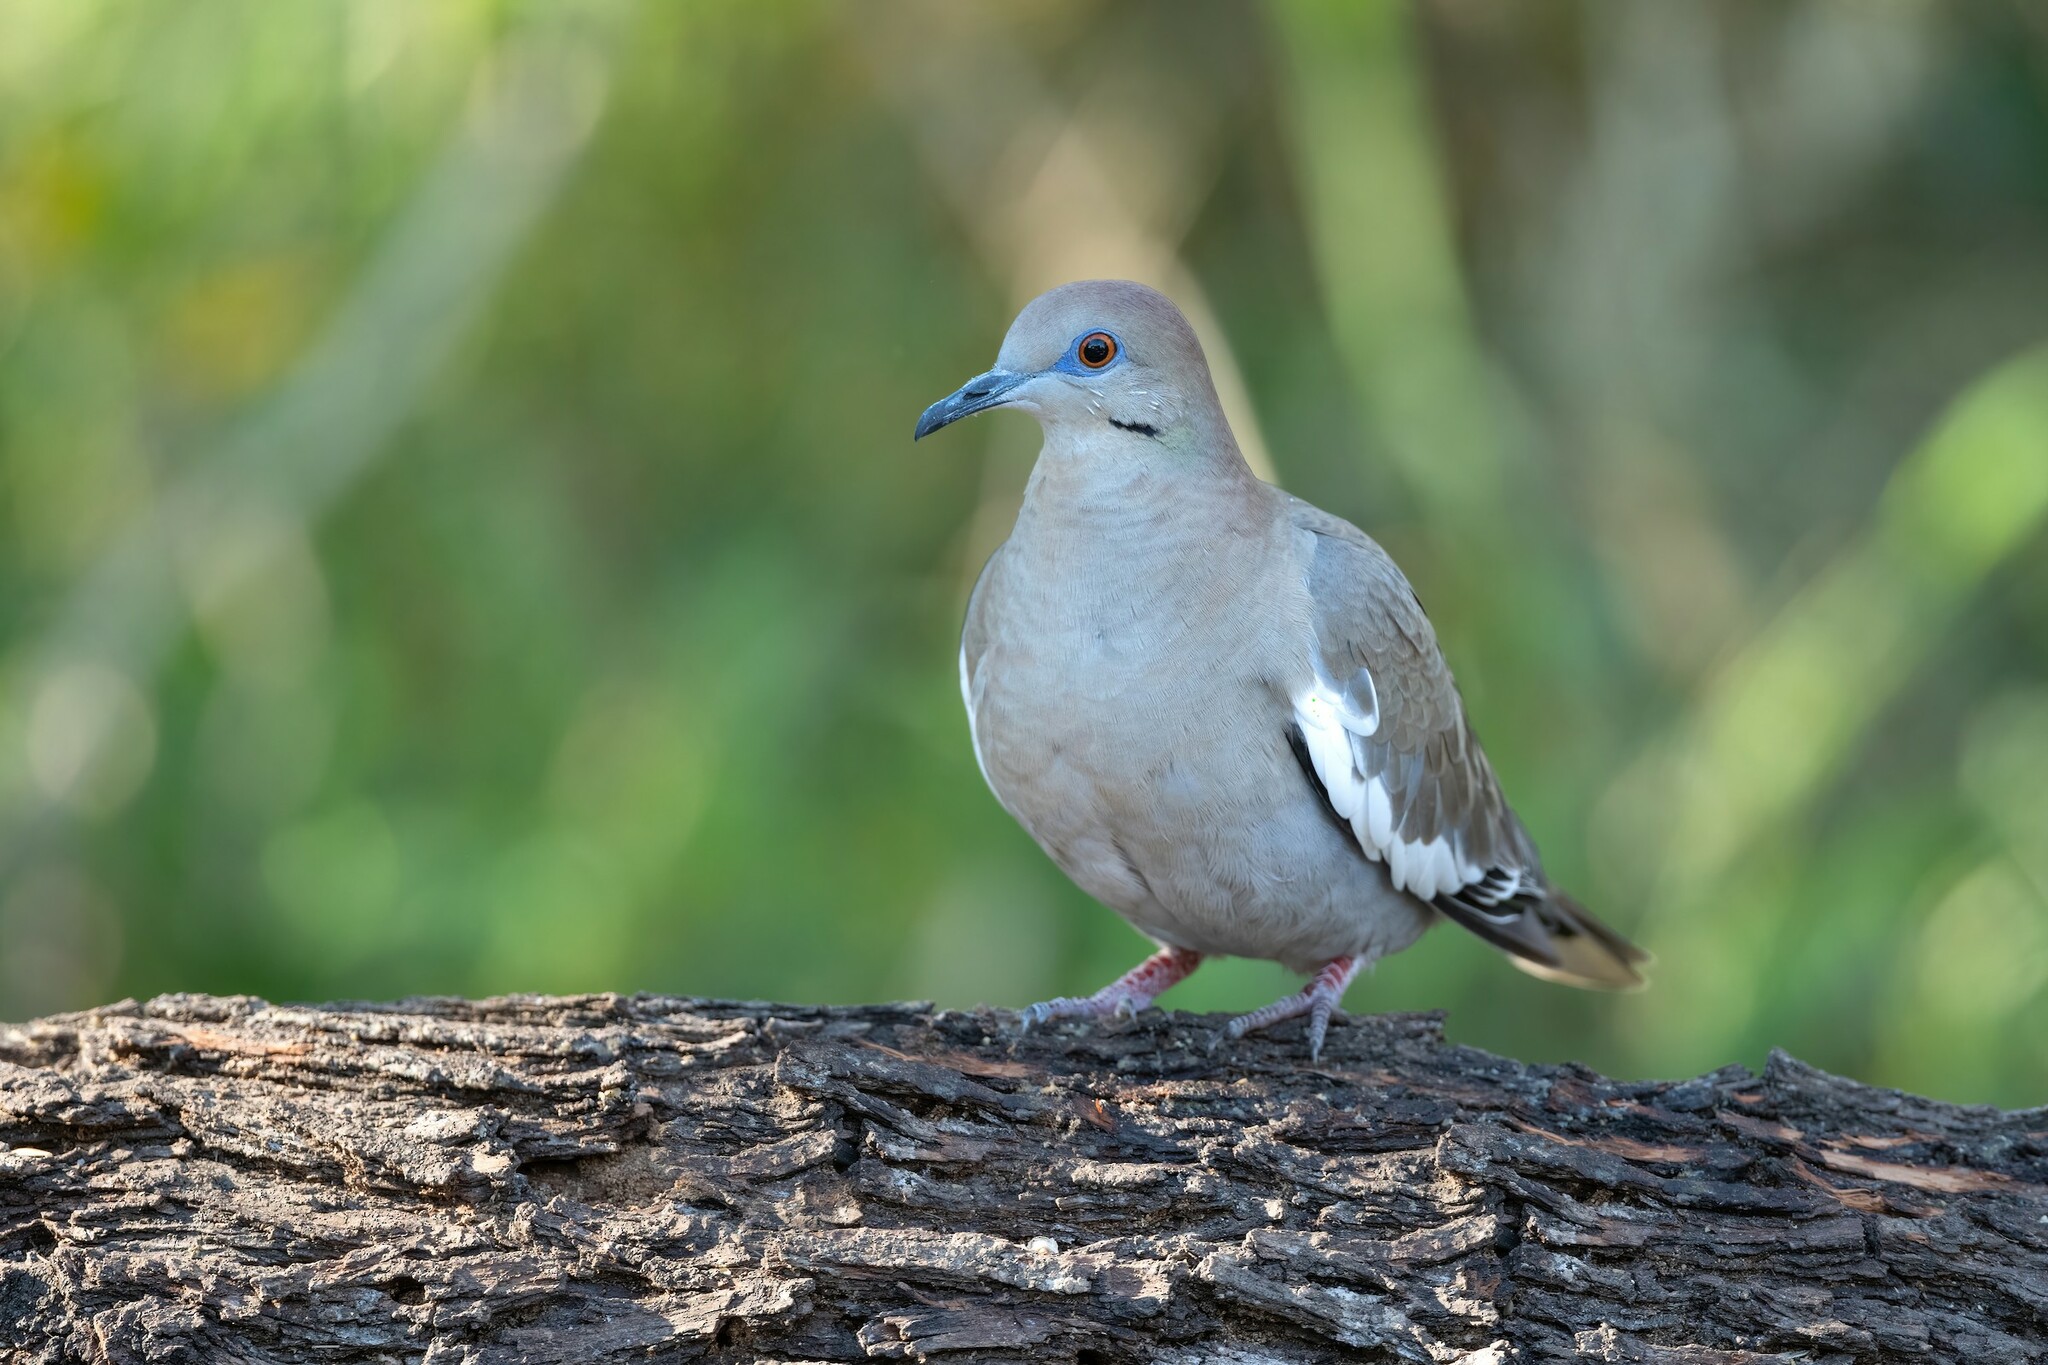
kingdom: Animalia
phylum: Chordata
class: Aves
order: Columbiformes
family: Columbidae
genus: Zenaida
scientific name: Zenaida asiatica
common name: White-winged dove
